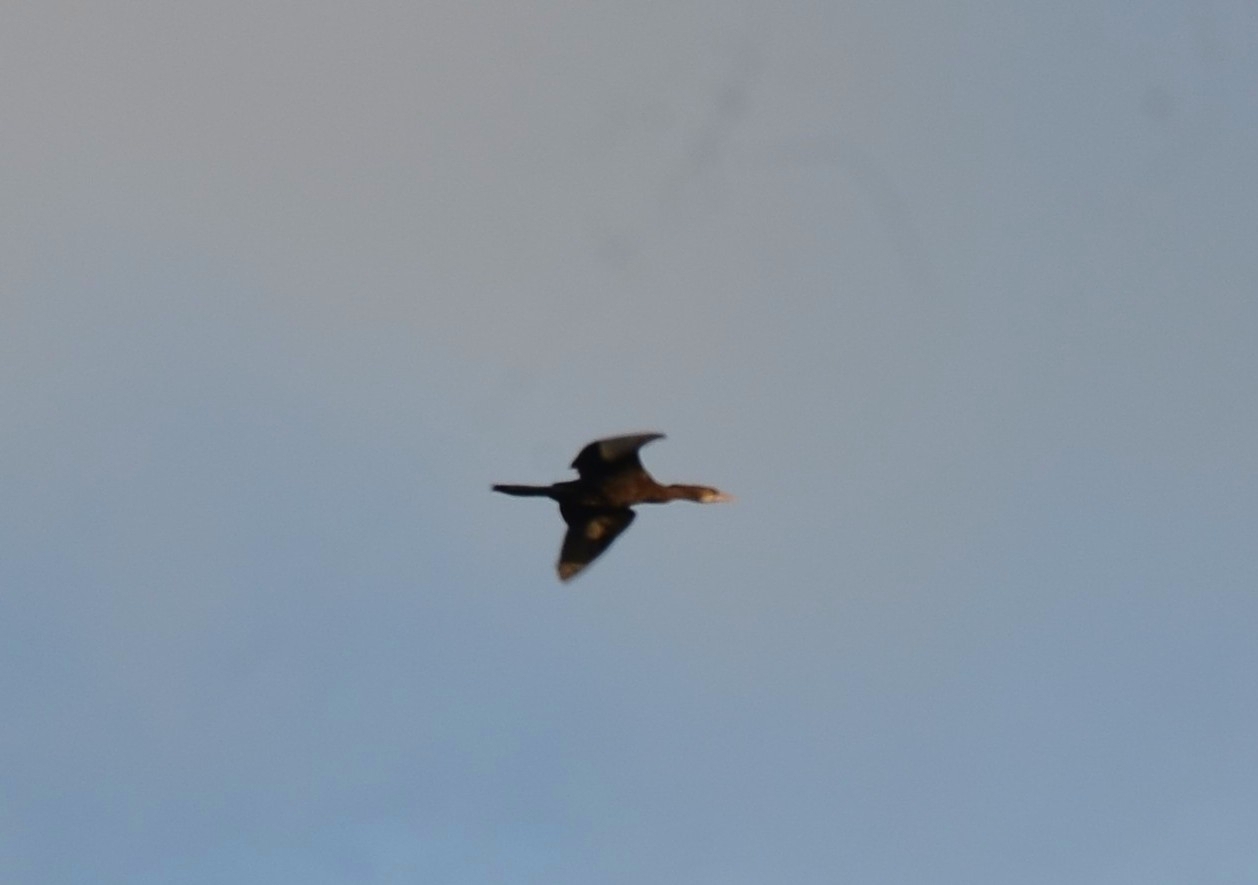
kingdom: Animalia
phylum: Chordata
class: Aves
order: Suliformes
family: Phalacrocoracidae
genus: Microcarbo
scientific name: Microcarbo niger
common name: Little cormorant
